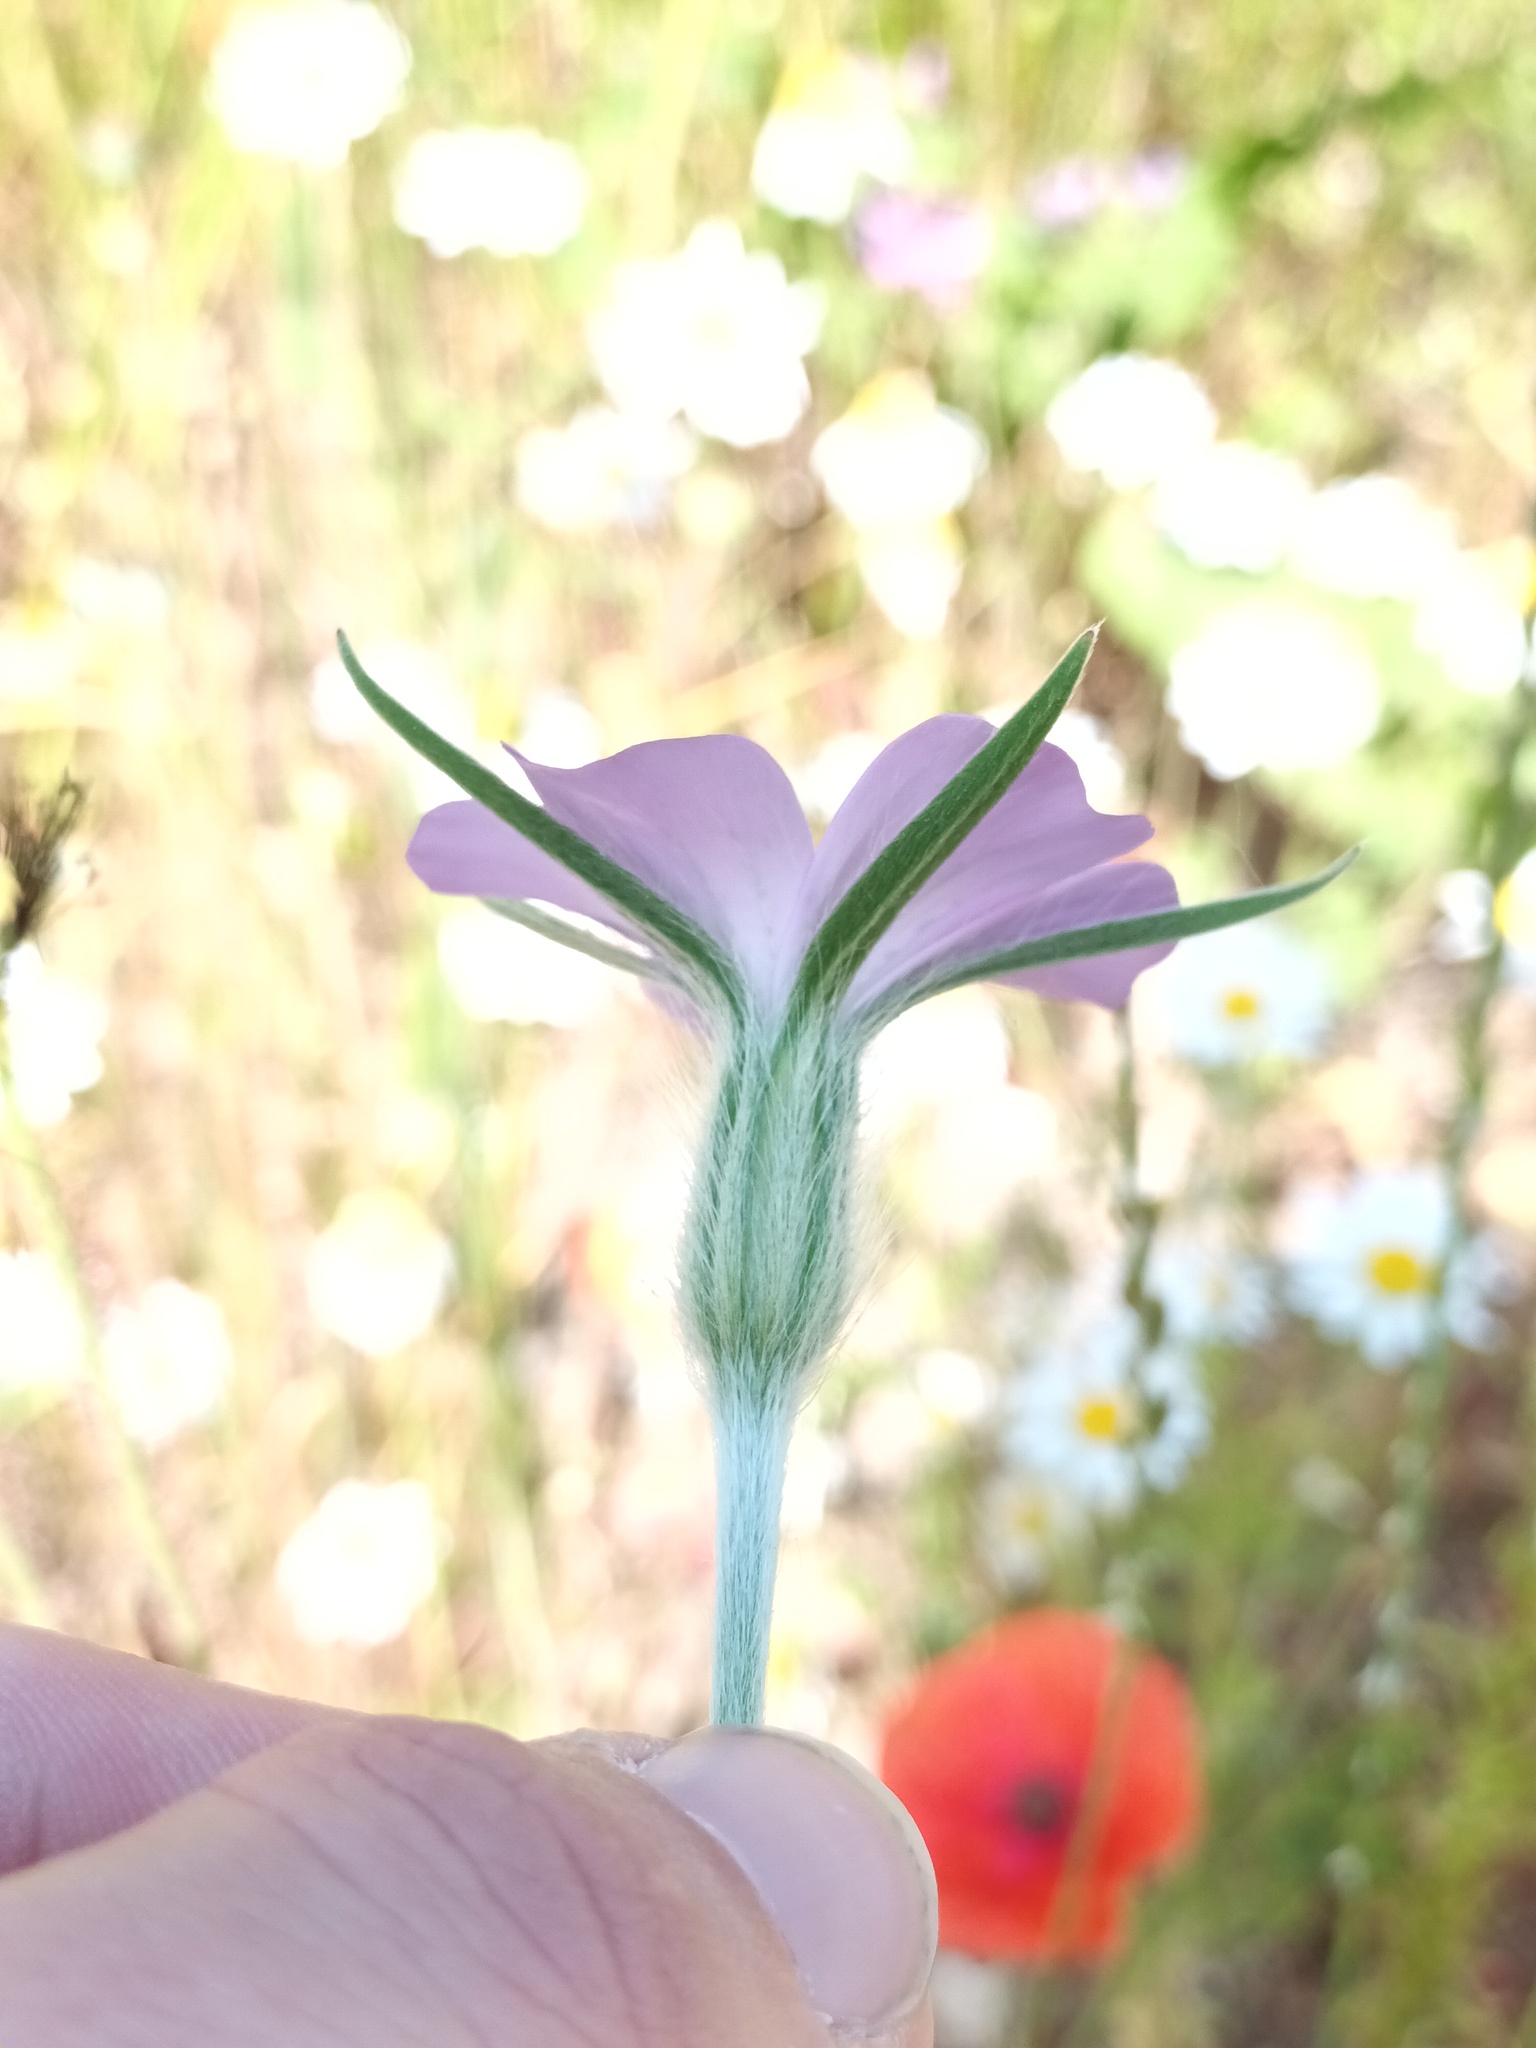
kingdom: Plantae
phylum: Tracheophyta
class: Magnoliopsida
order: Caryophyllales
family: Caryophyllaceae
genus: Agrostemma
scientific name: Agrostemma githago
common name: Common corncockle
